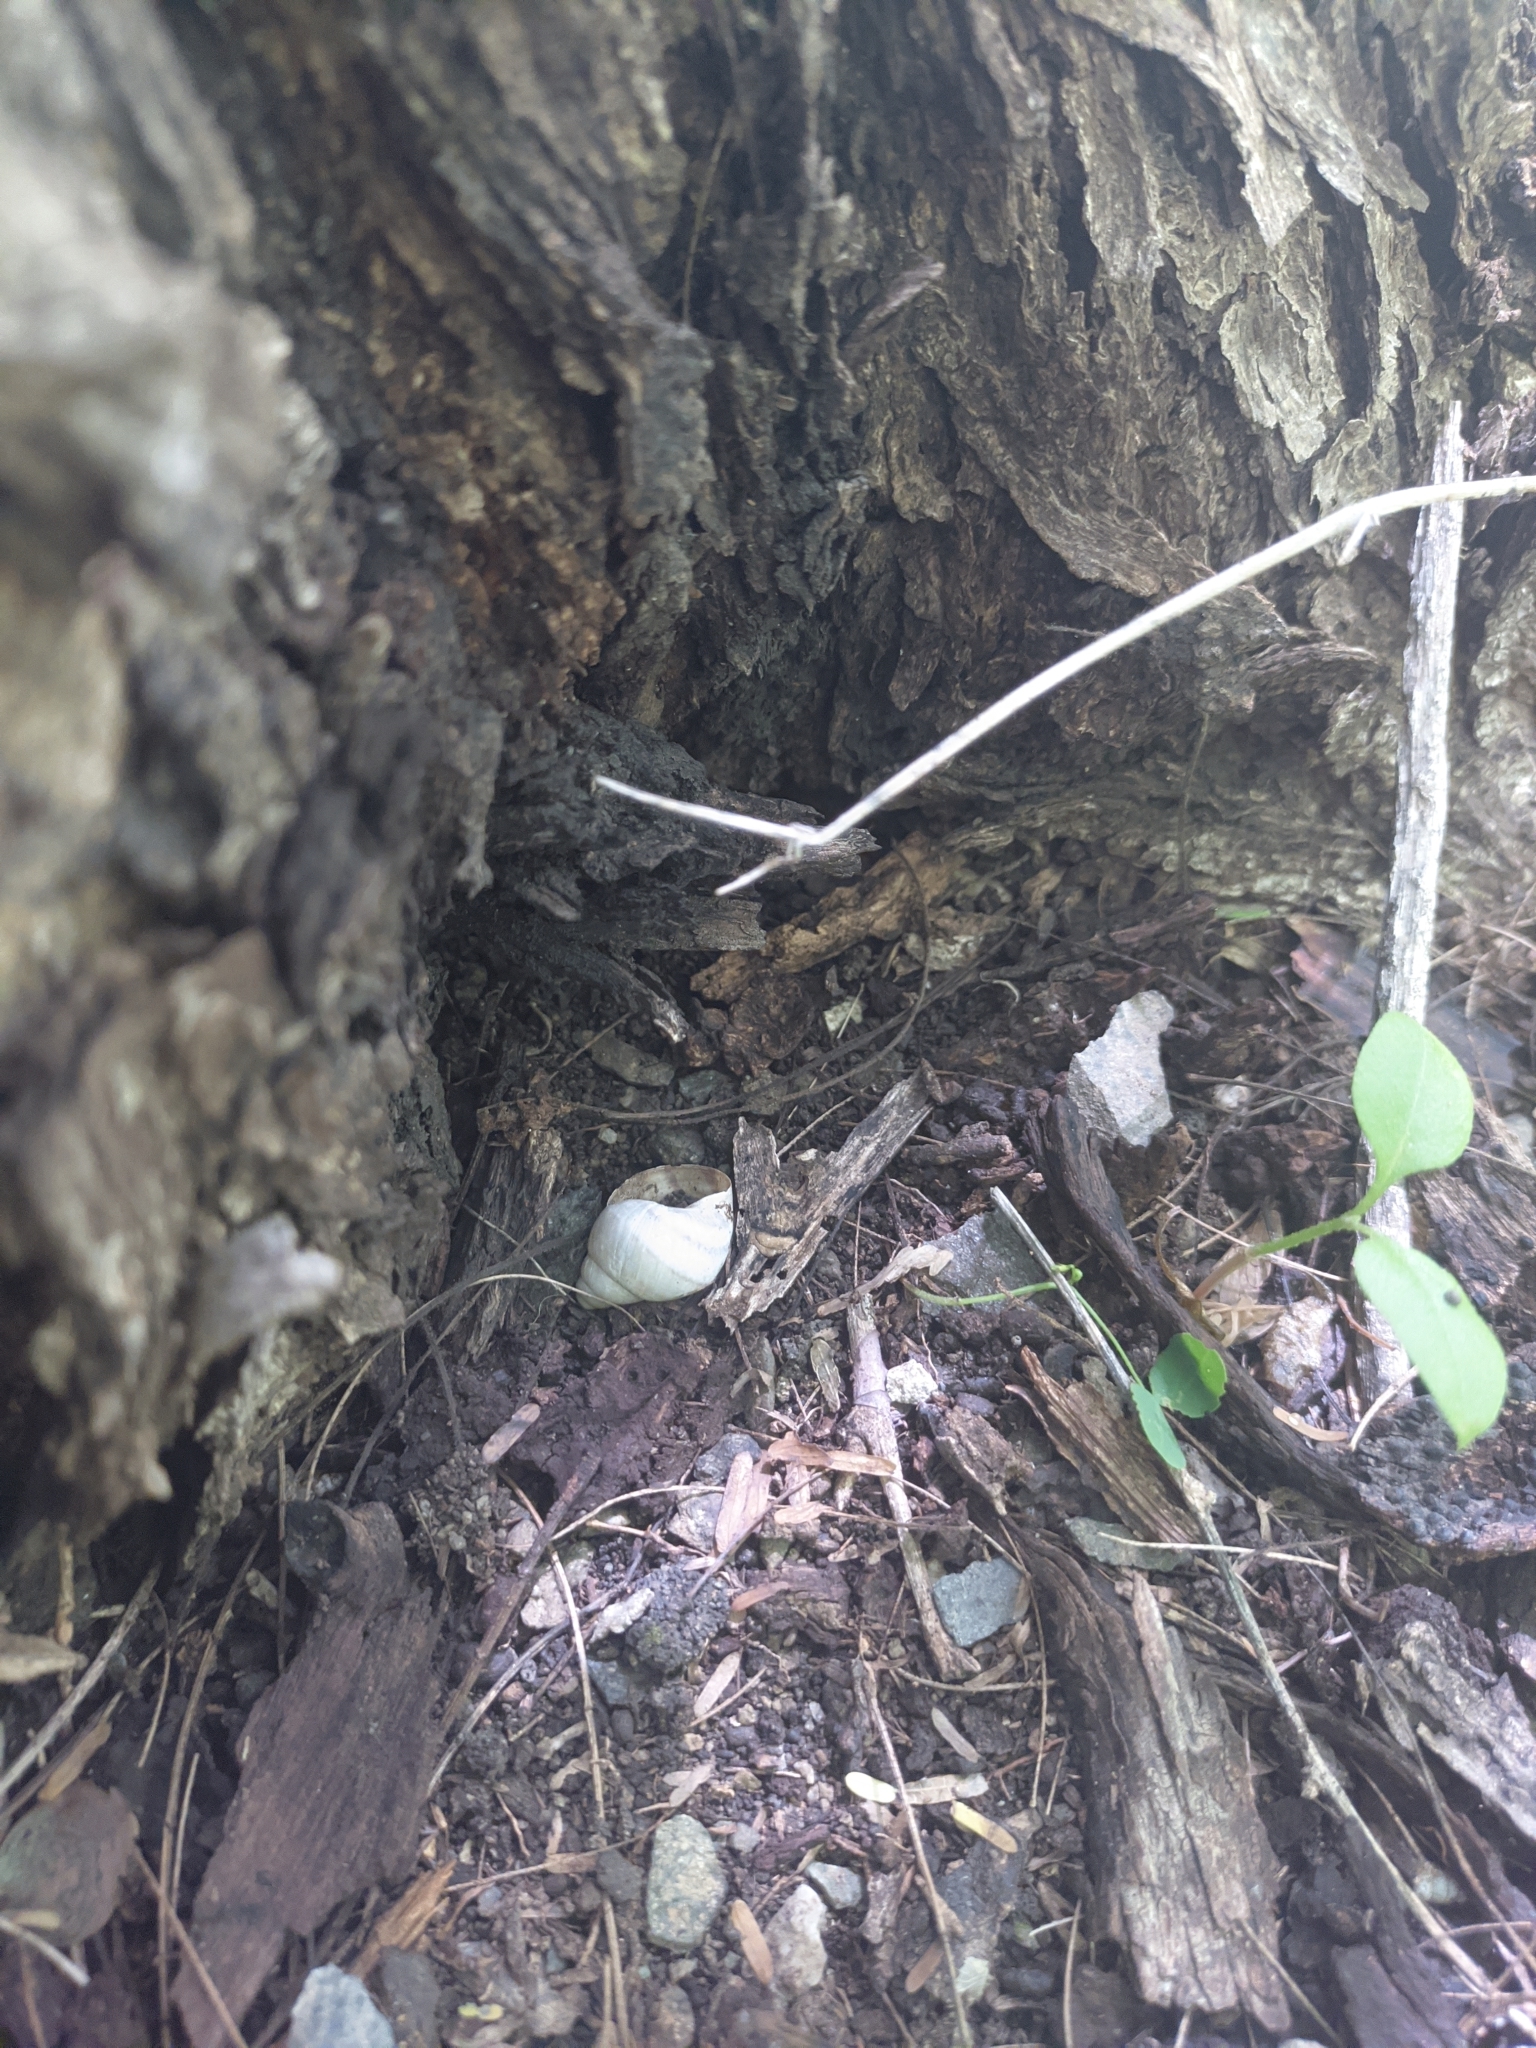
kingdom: Animalia
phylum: Mollusca
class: Gastropoda
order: Stylommatophora
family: Orthalicidae
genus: Orthalicus
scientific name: Orthalicus maracaibensis
